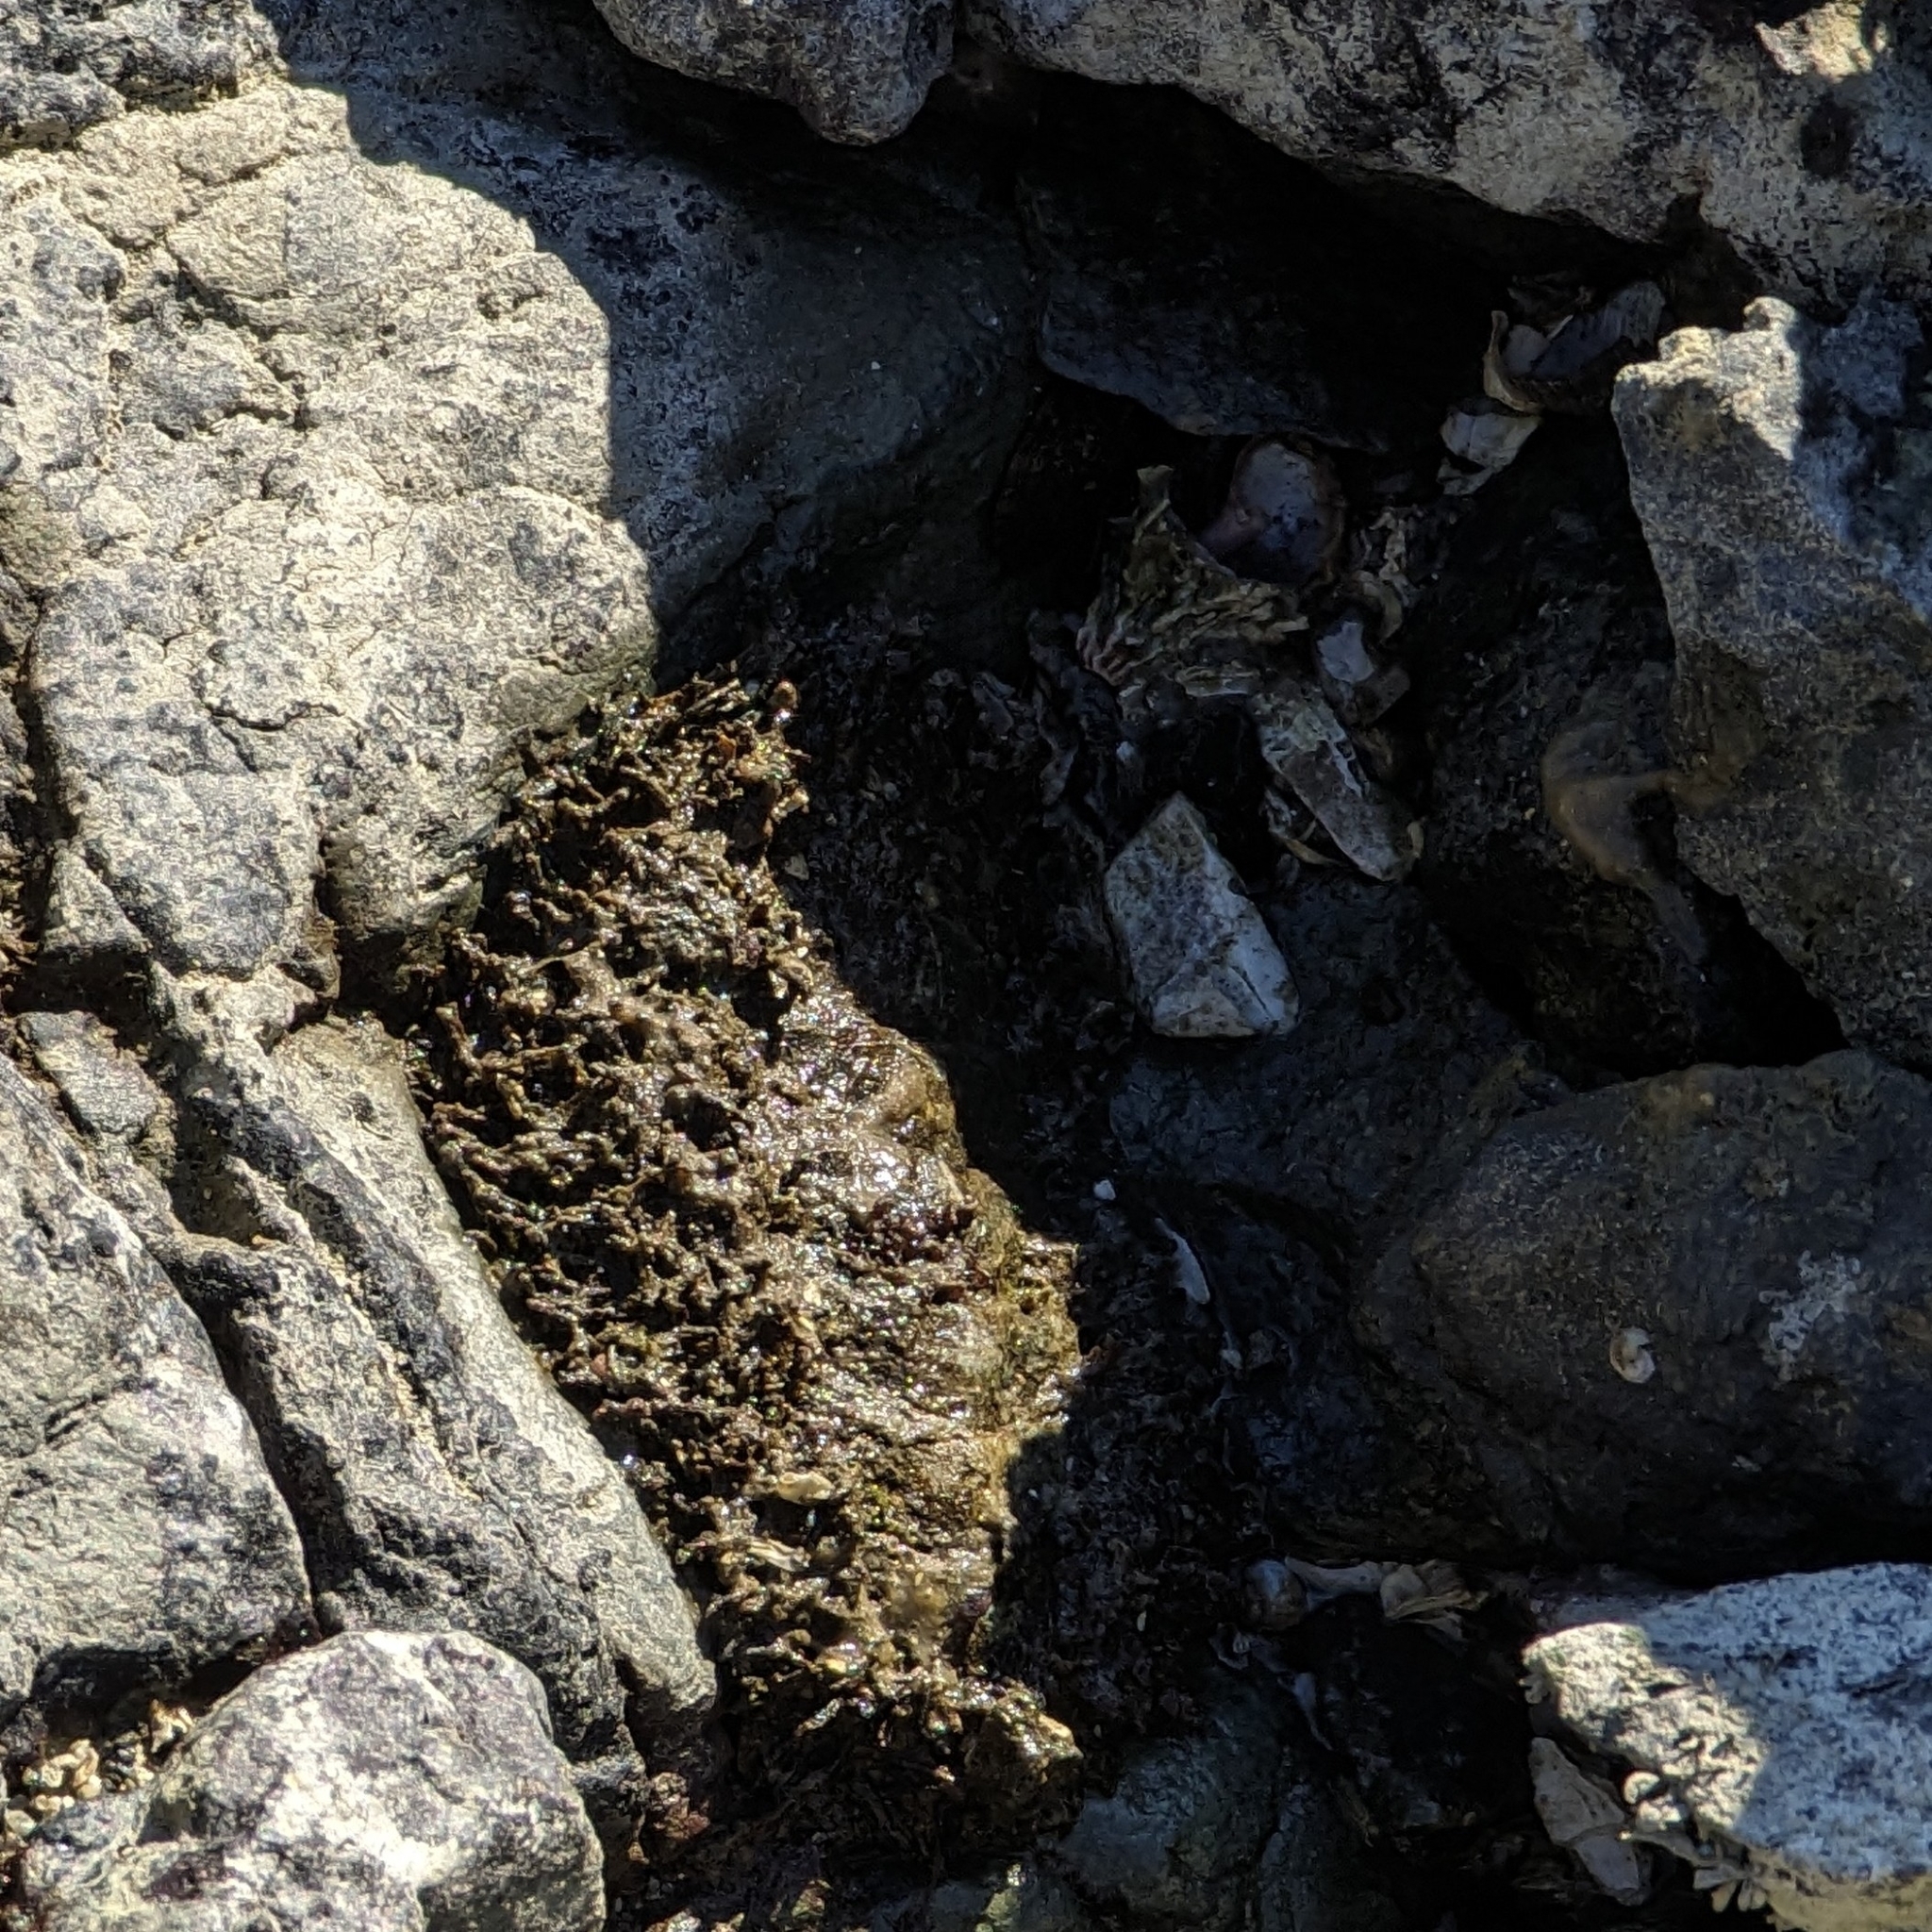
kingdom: Animalia
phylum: Mollusca
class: Polyplacophora
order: Chitonida
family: Mopaliidae
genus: Mopalia
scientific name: Mopalia muscosa
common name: Mossy chiton
